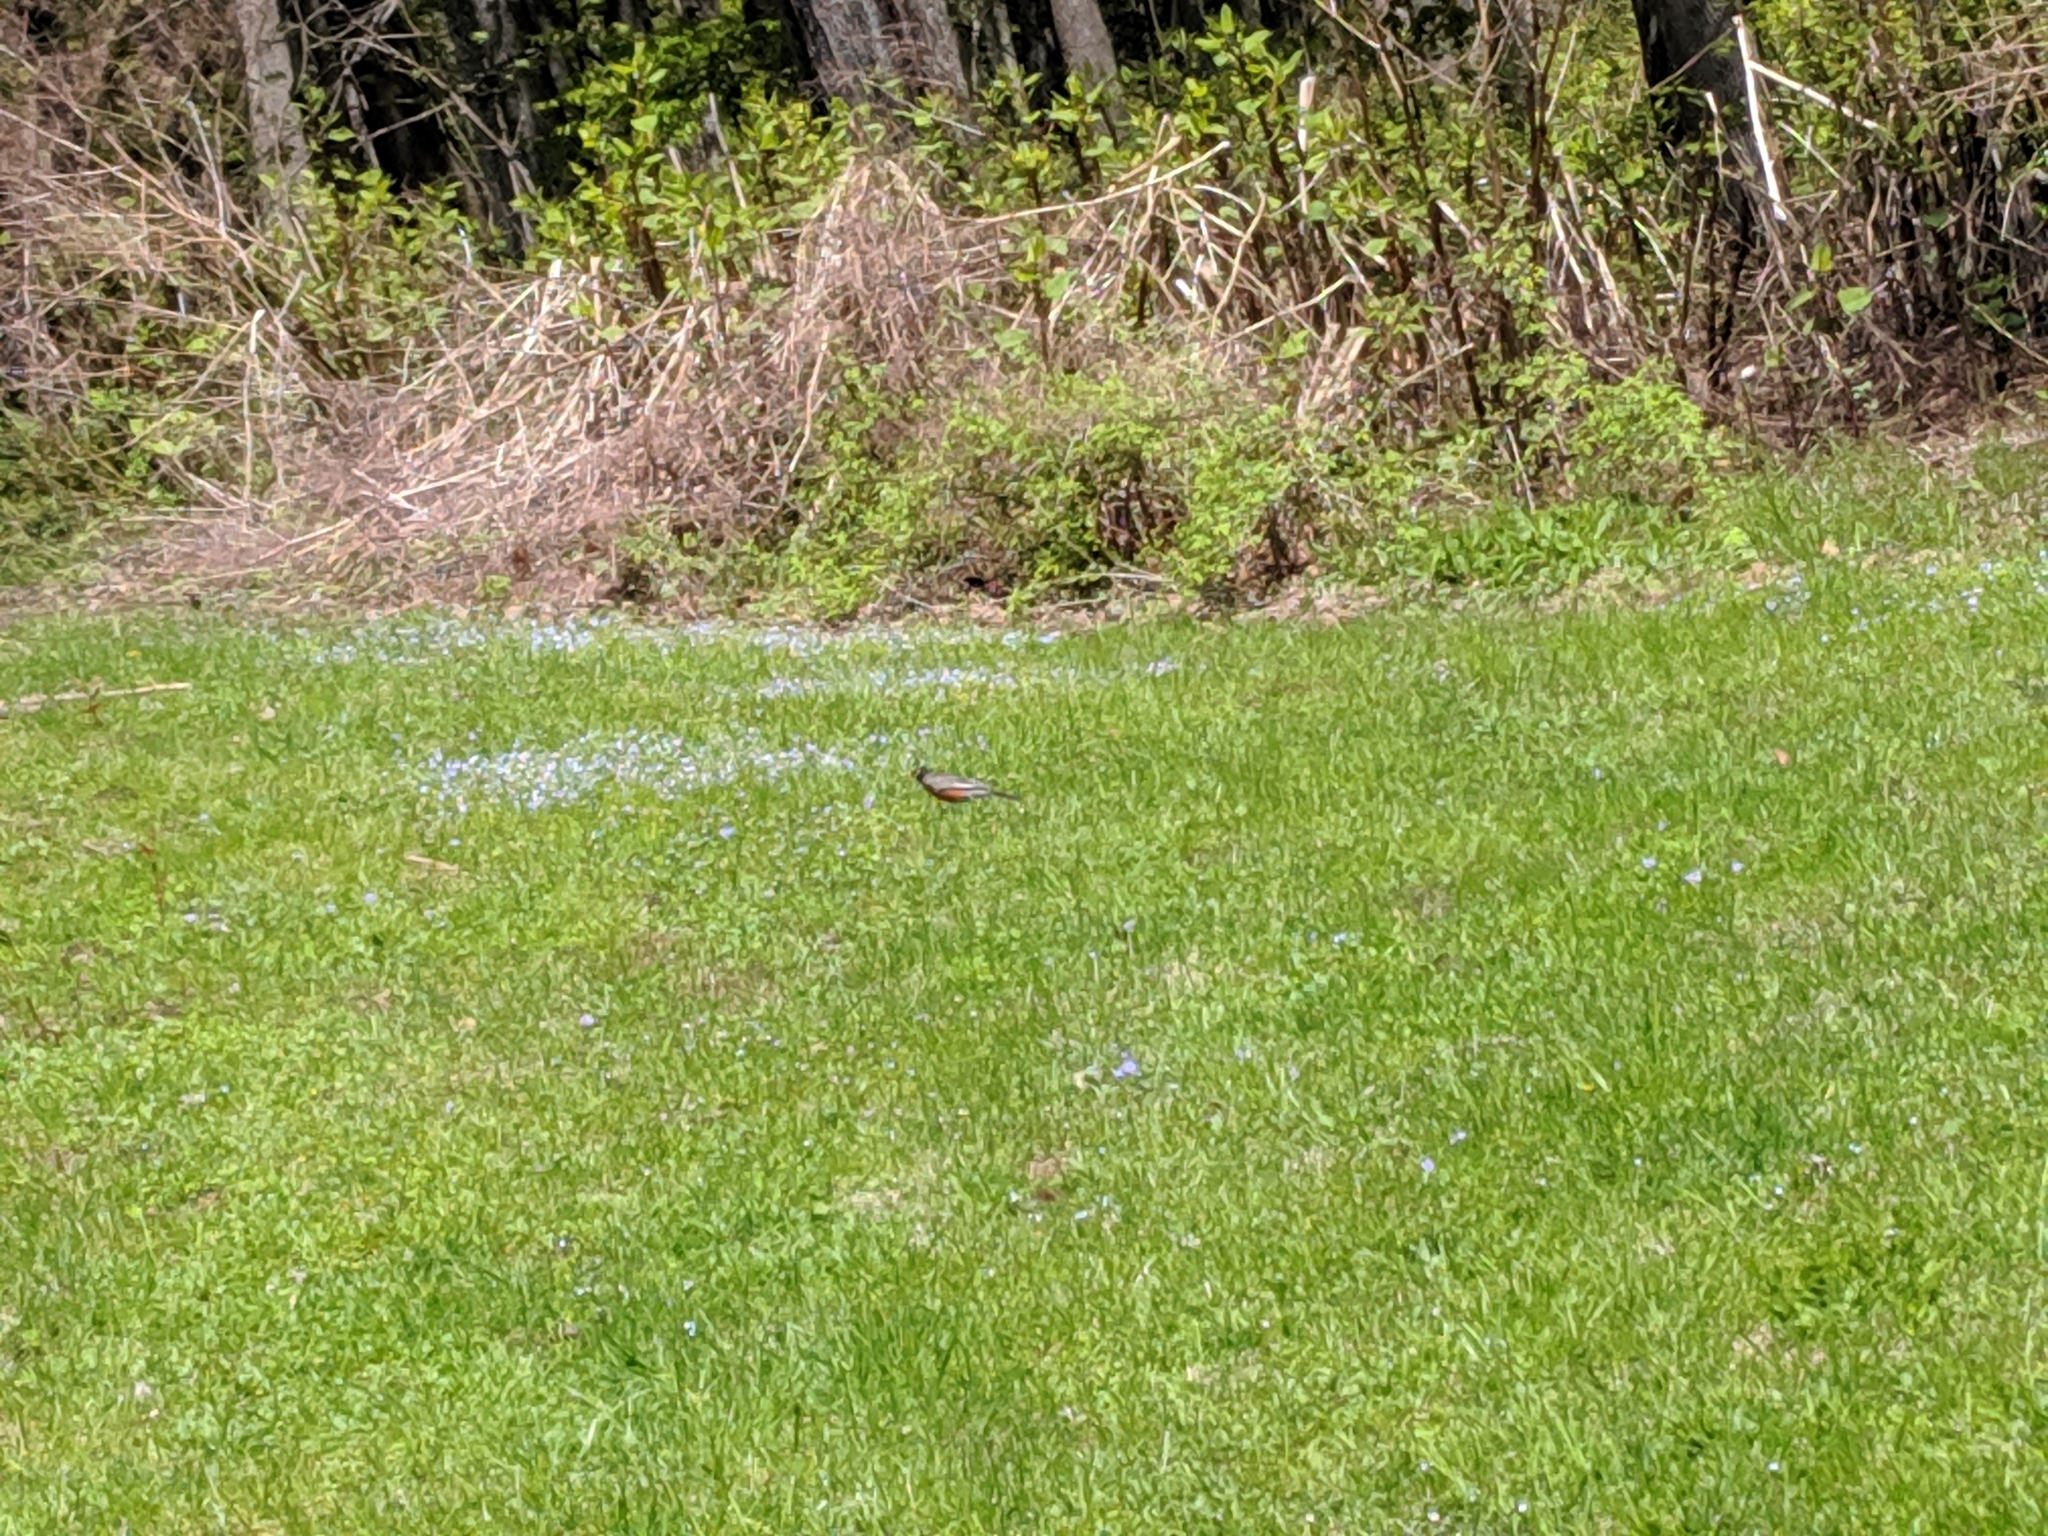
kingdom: Animalia
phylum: Chordata
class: Aves
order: Passeriformes
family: Turdidae
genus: Turdus
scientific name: Turdus migratorius
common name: American robin
